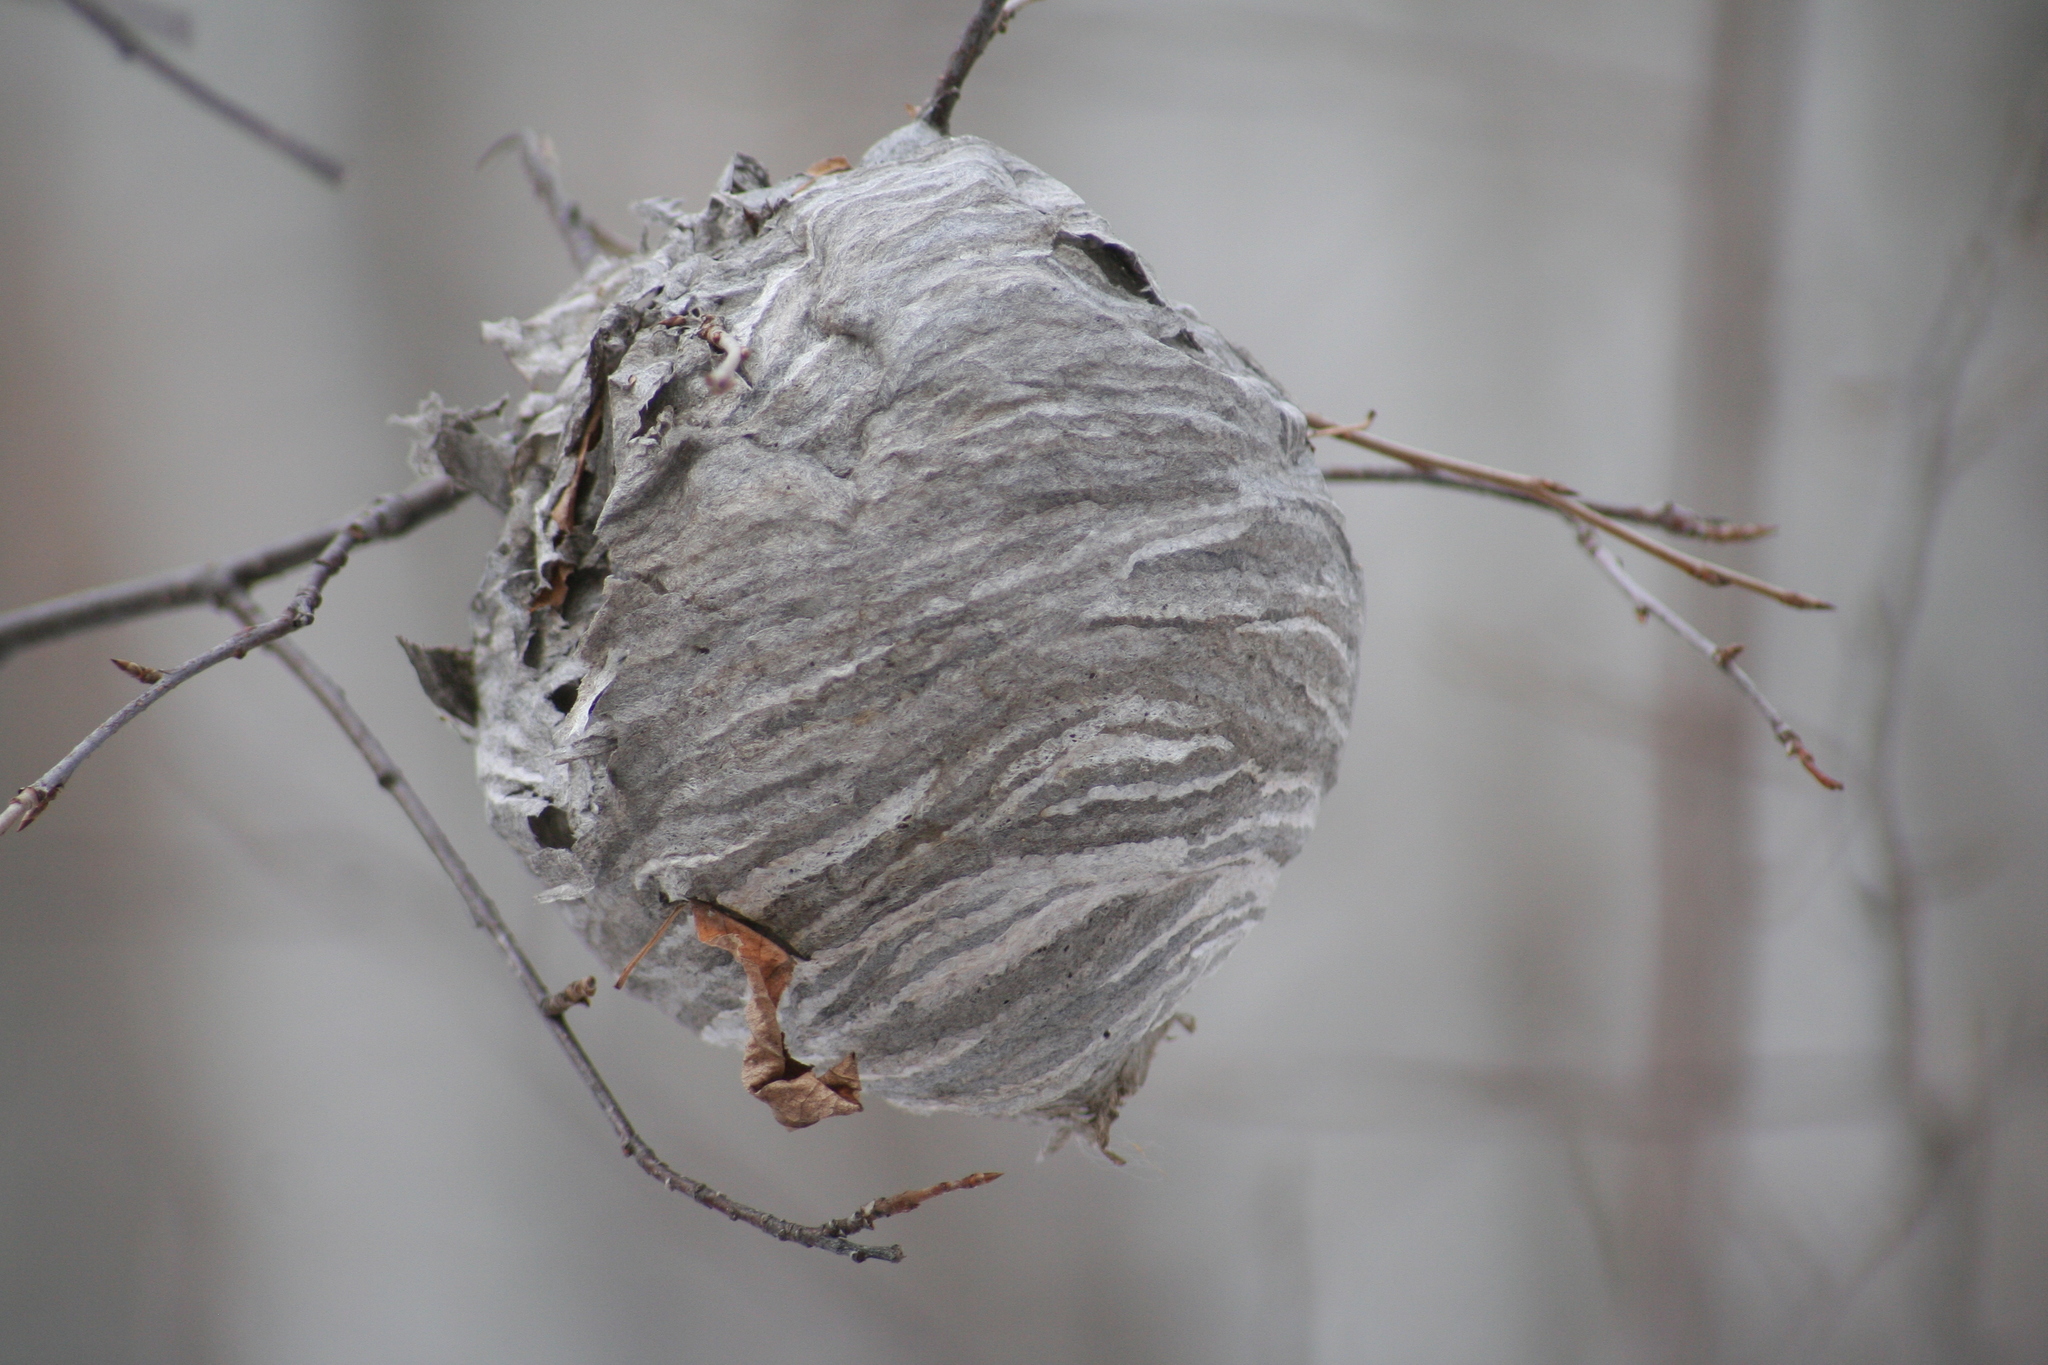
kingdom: Animalia
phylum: Arthropoda
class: Insecta
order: Hymenoptera
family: Vespidae
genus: Dolichovespula
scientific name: Dolichovespula
